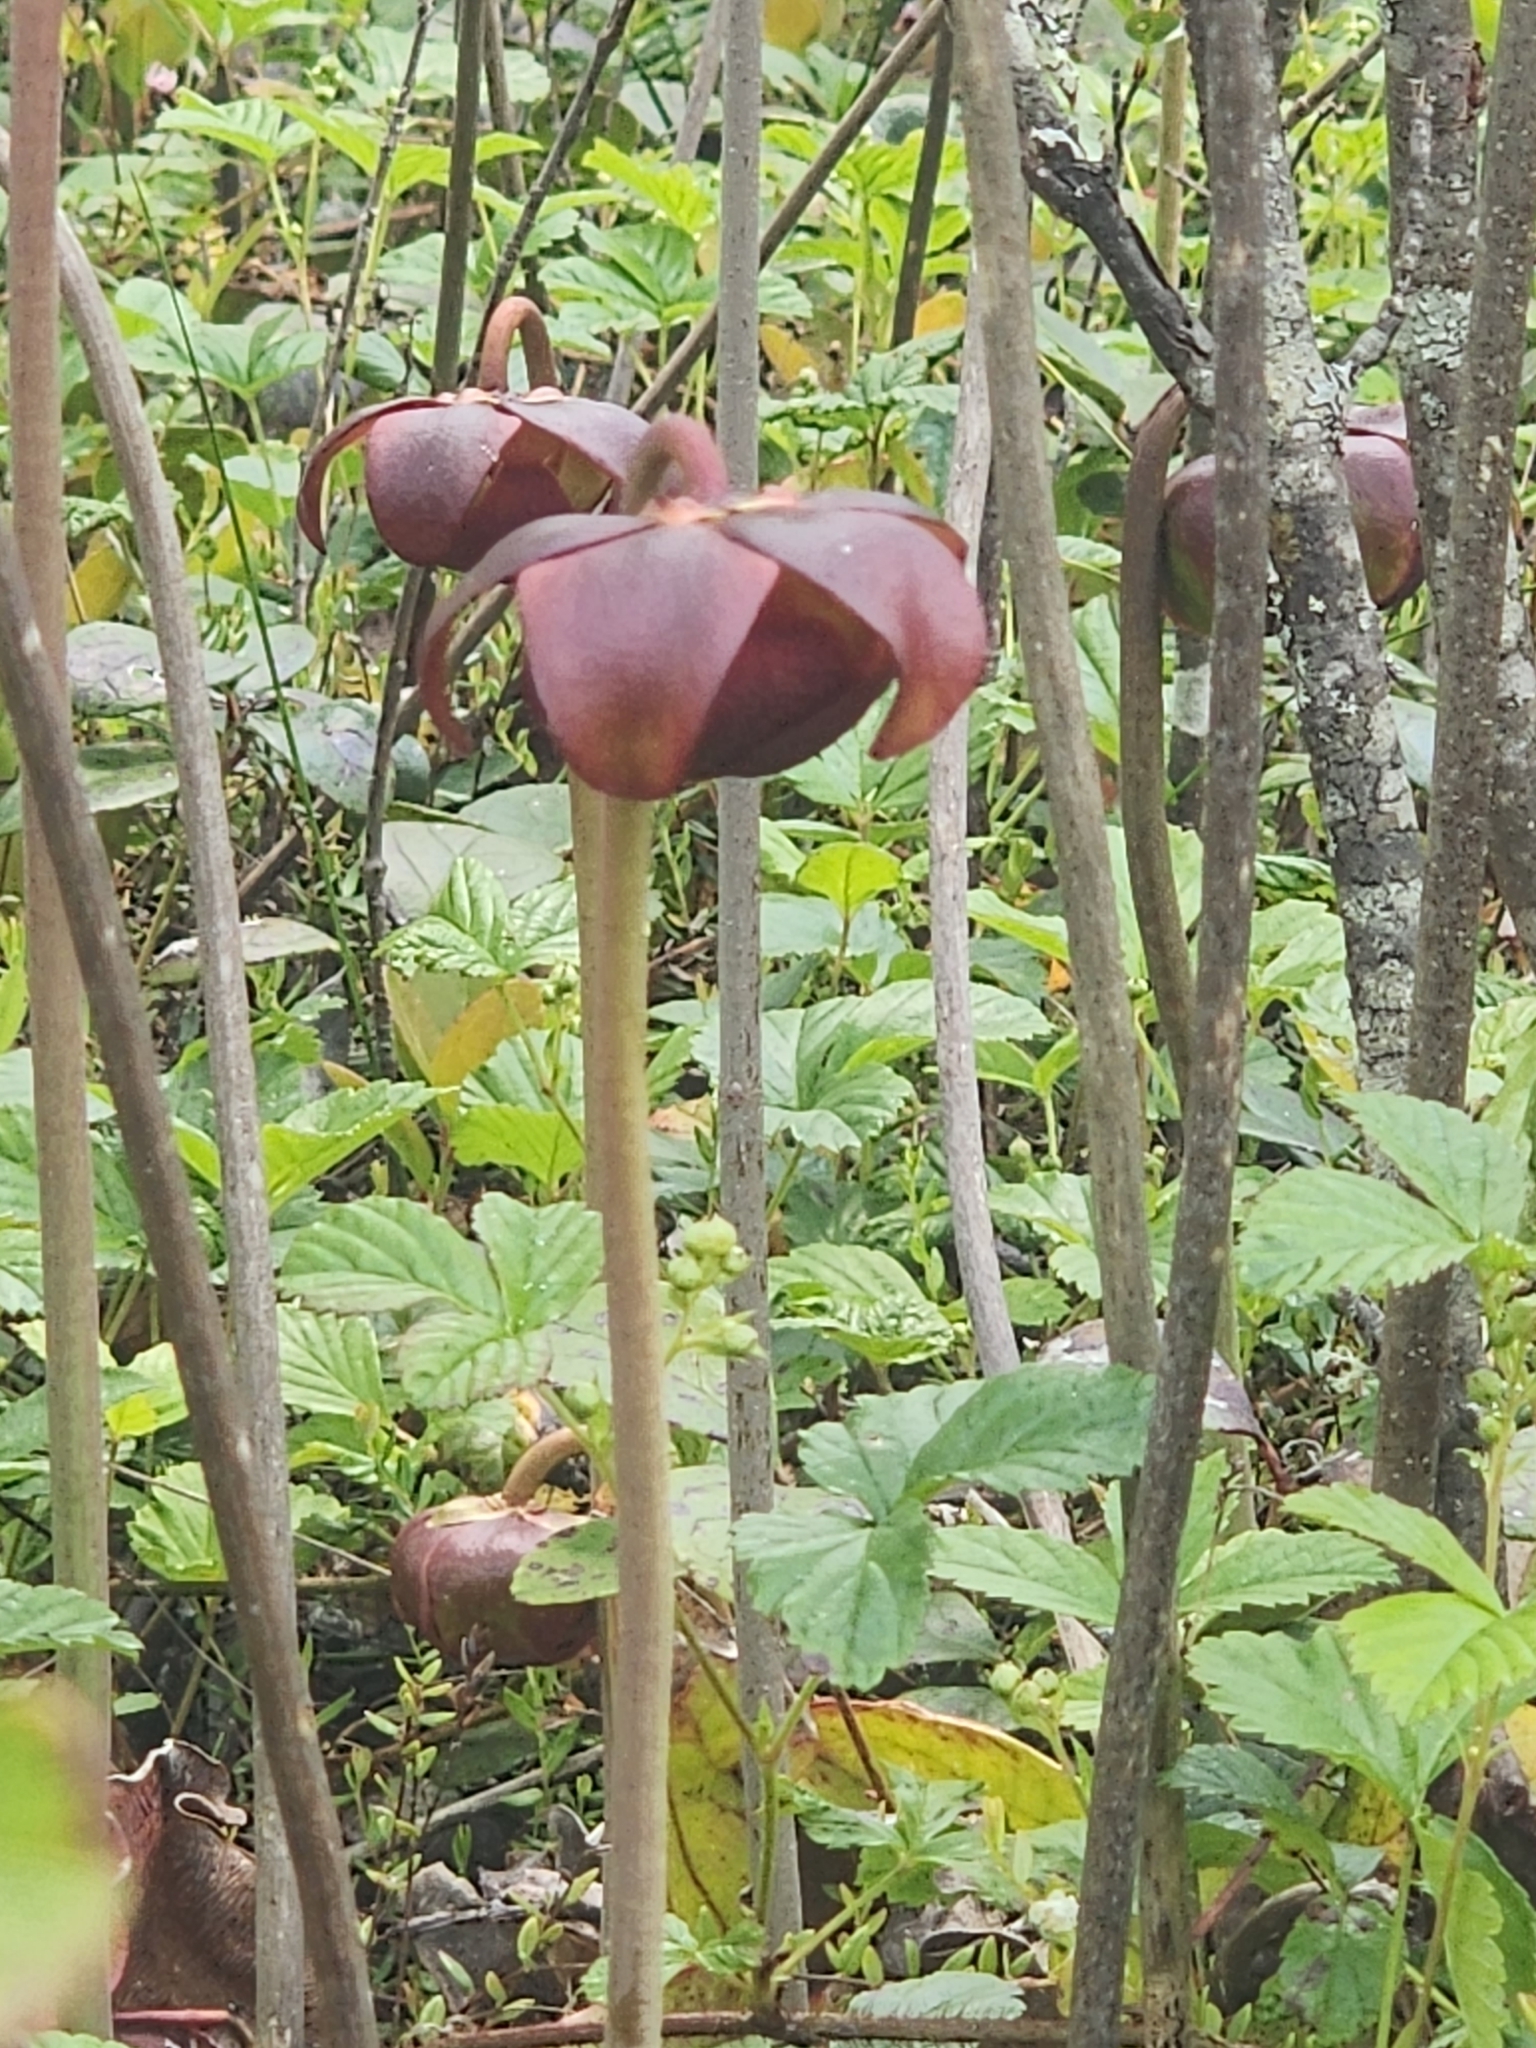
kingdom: Plantae
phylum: Tracheophyta
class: Magnoliopsida
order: Ericales
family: Sarraceniaceae
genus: Sarracenia
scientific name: Sarracenia purpurea
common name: Pitcherplant
